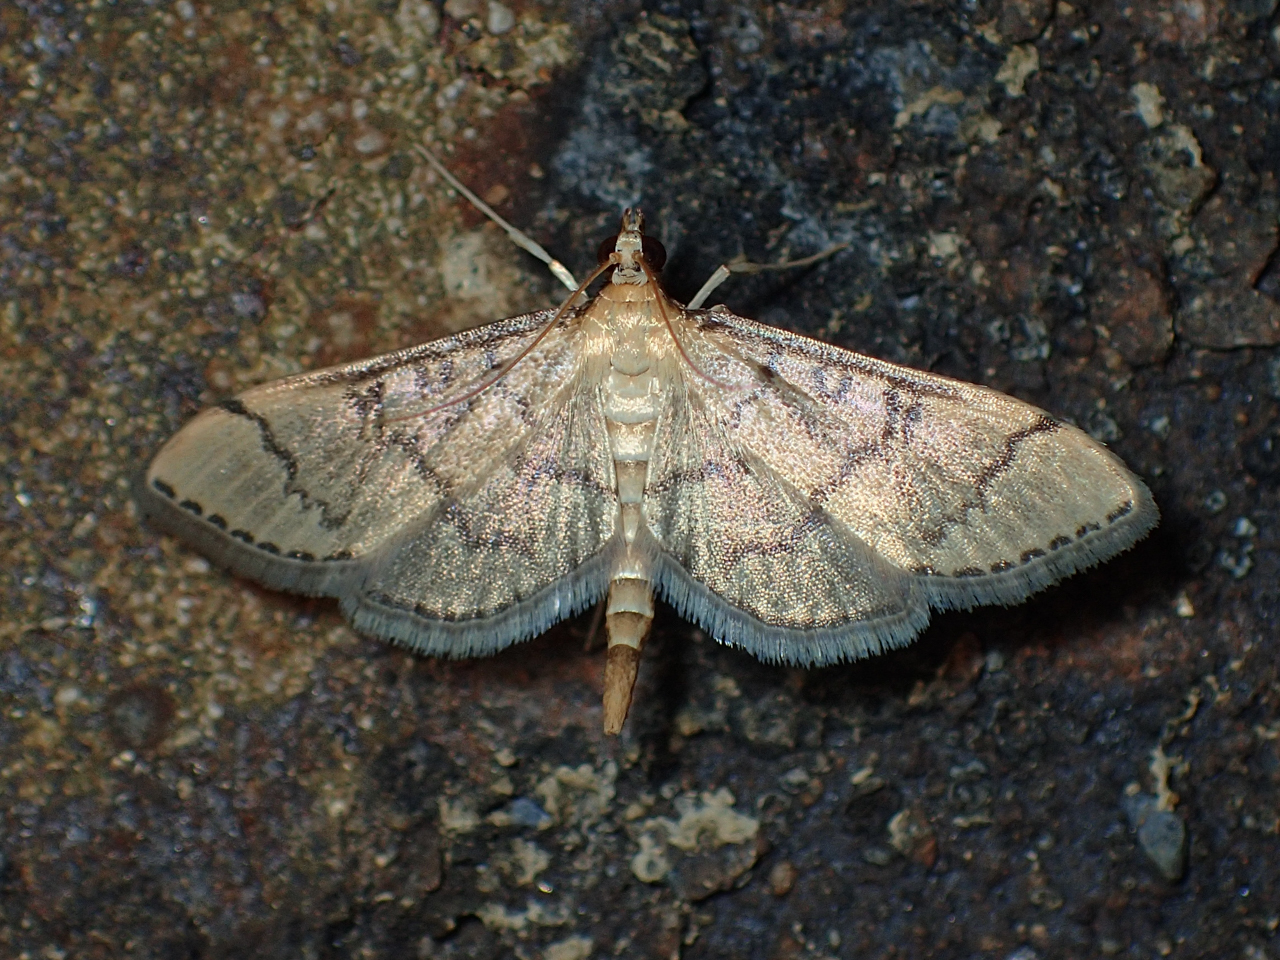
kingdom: Animalia
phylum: Arthropoda
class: Insecta
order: Lepidoptera
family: Crambidae
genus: Lamprosema
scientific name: Lamprosema Blepharomastix ranalis
